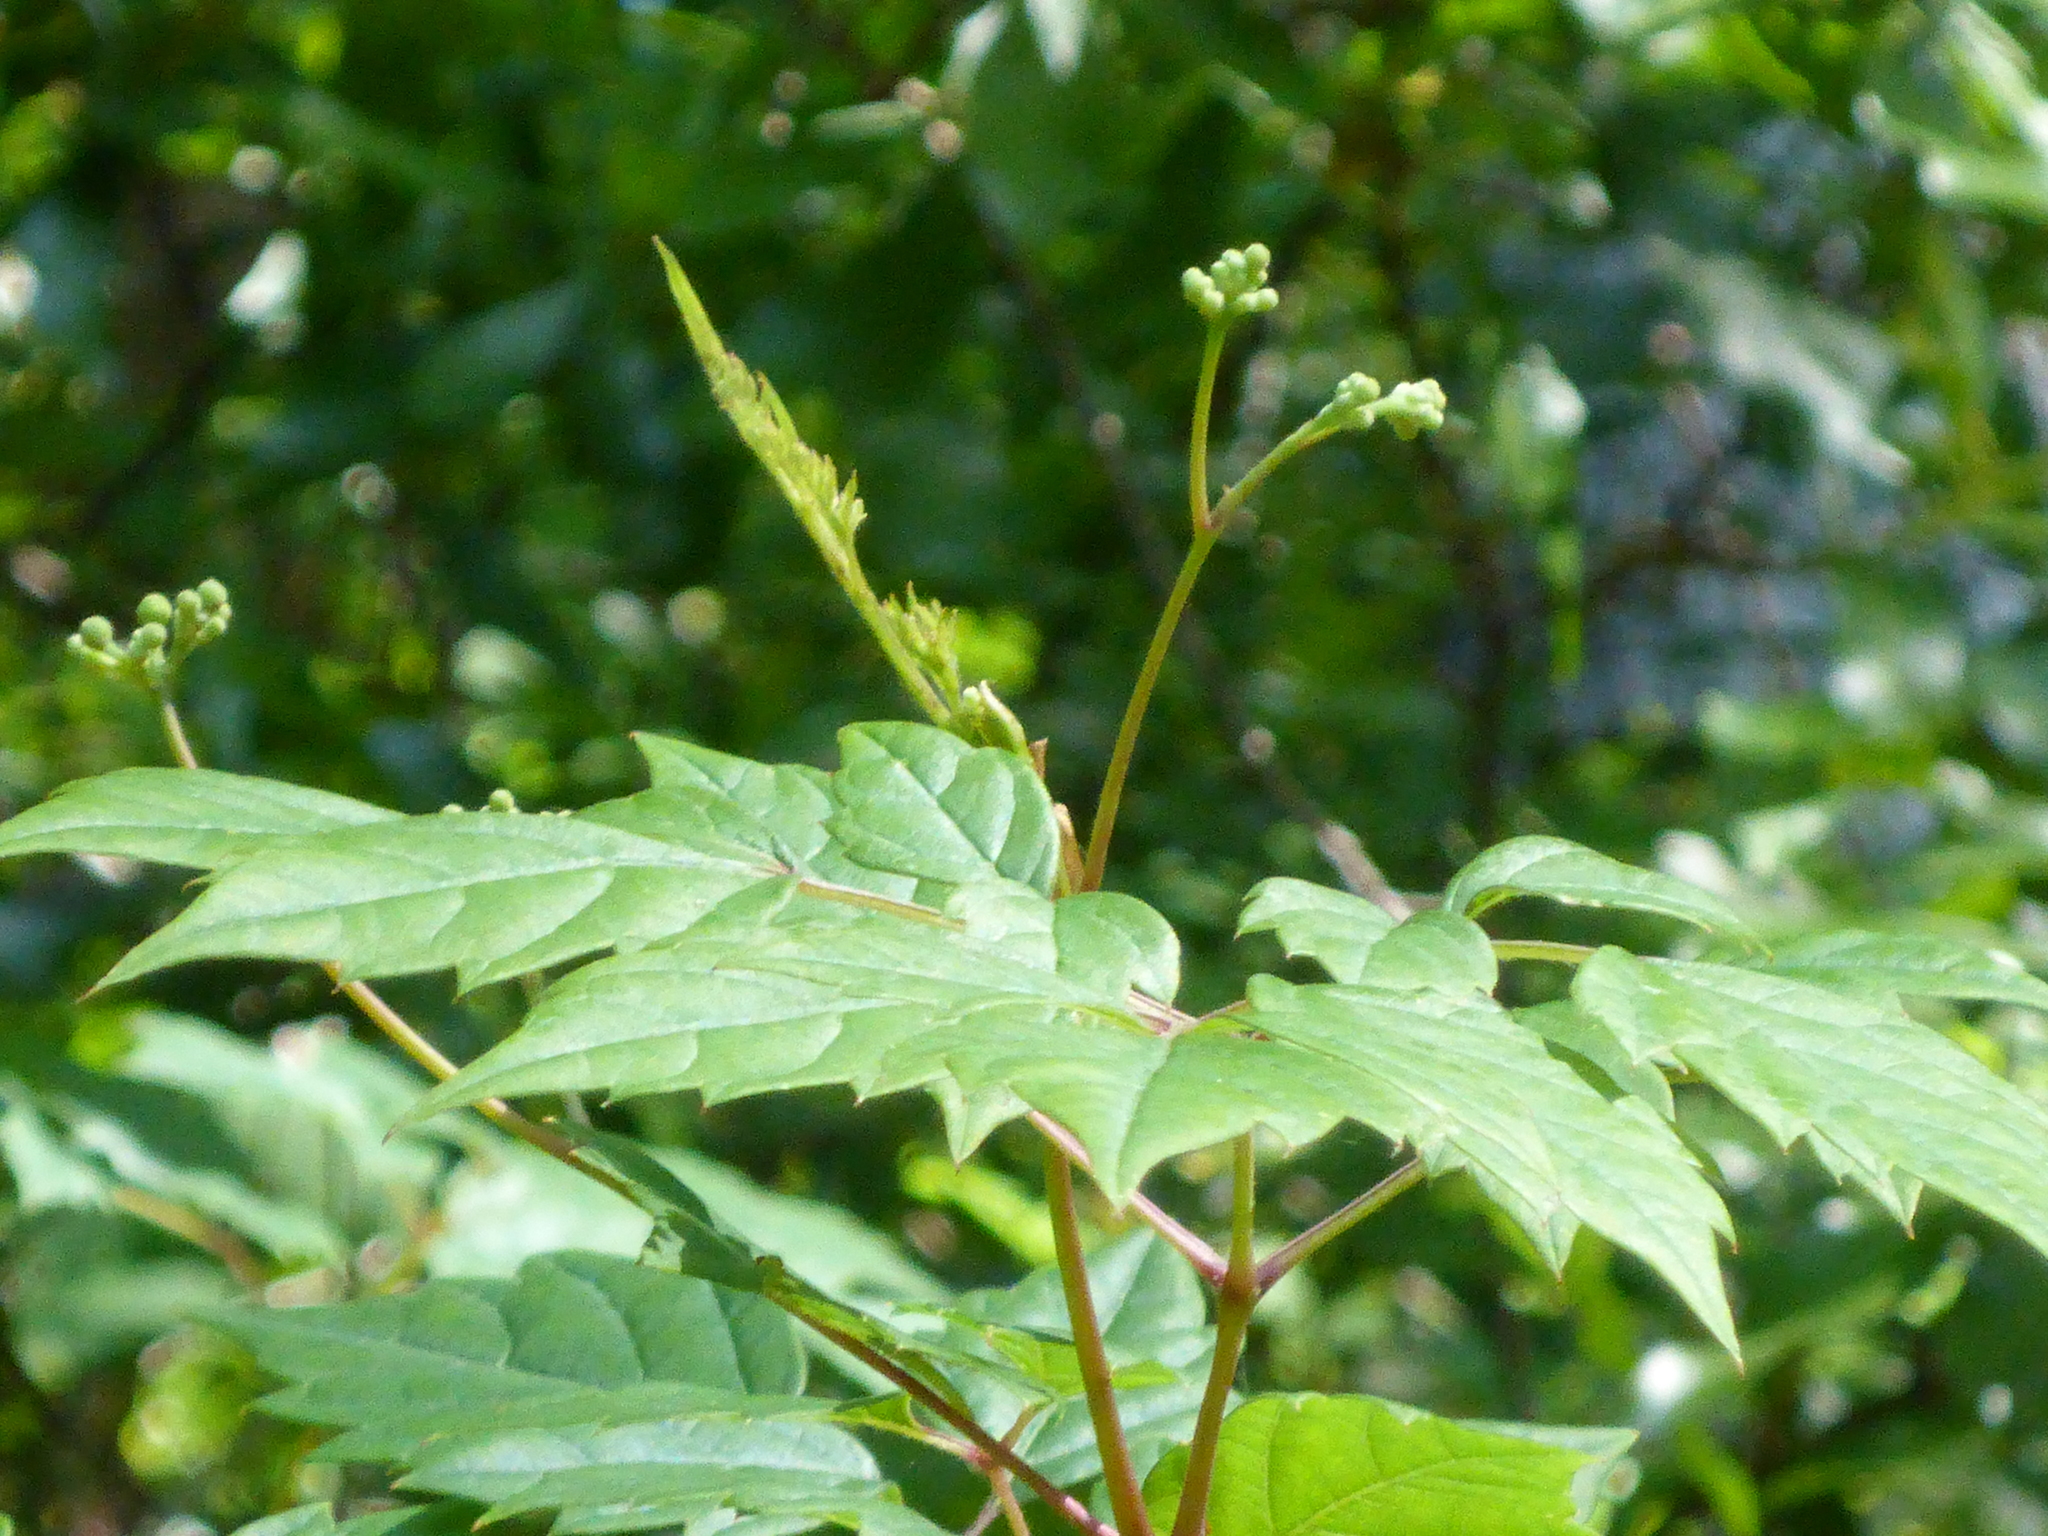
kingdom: Plantae
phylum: Tracheophyta
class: Magnoliopsida
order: Vitales
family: Vitaceae
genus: Nekemias
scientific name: Nekemias arborea
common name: Peppervine
